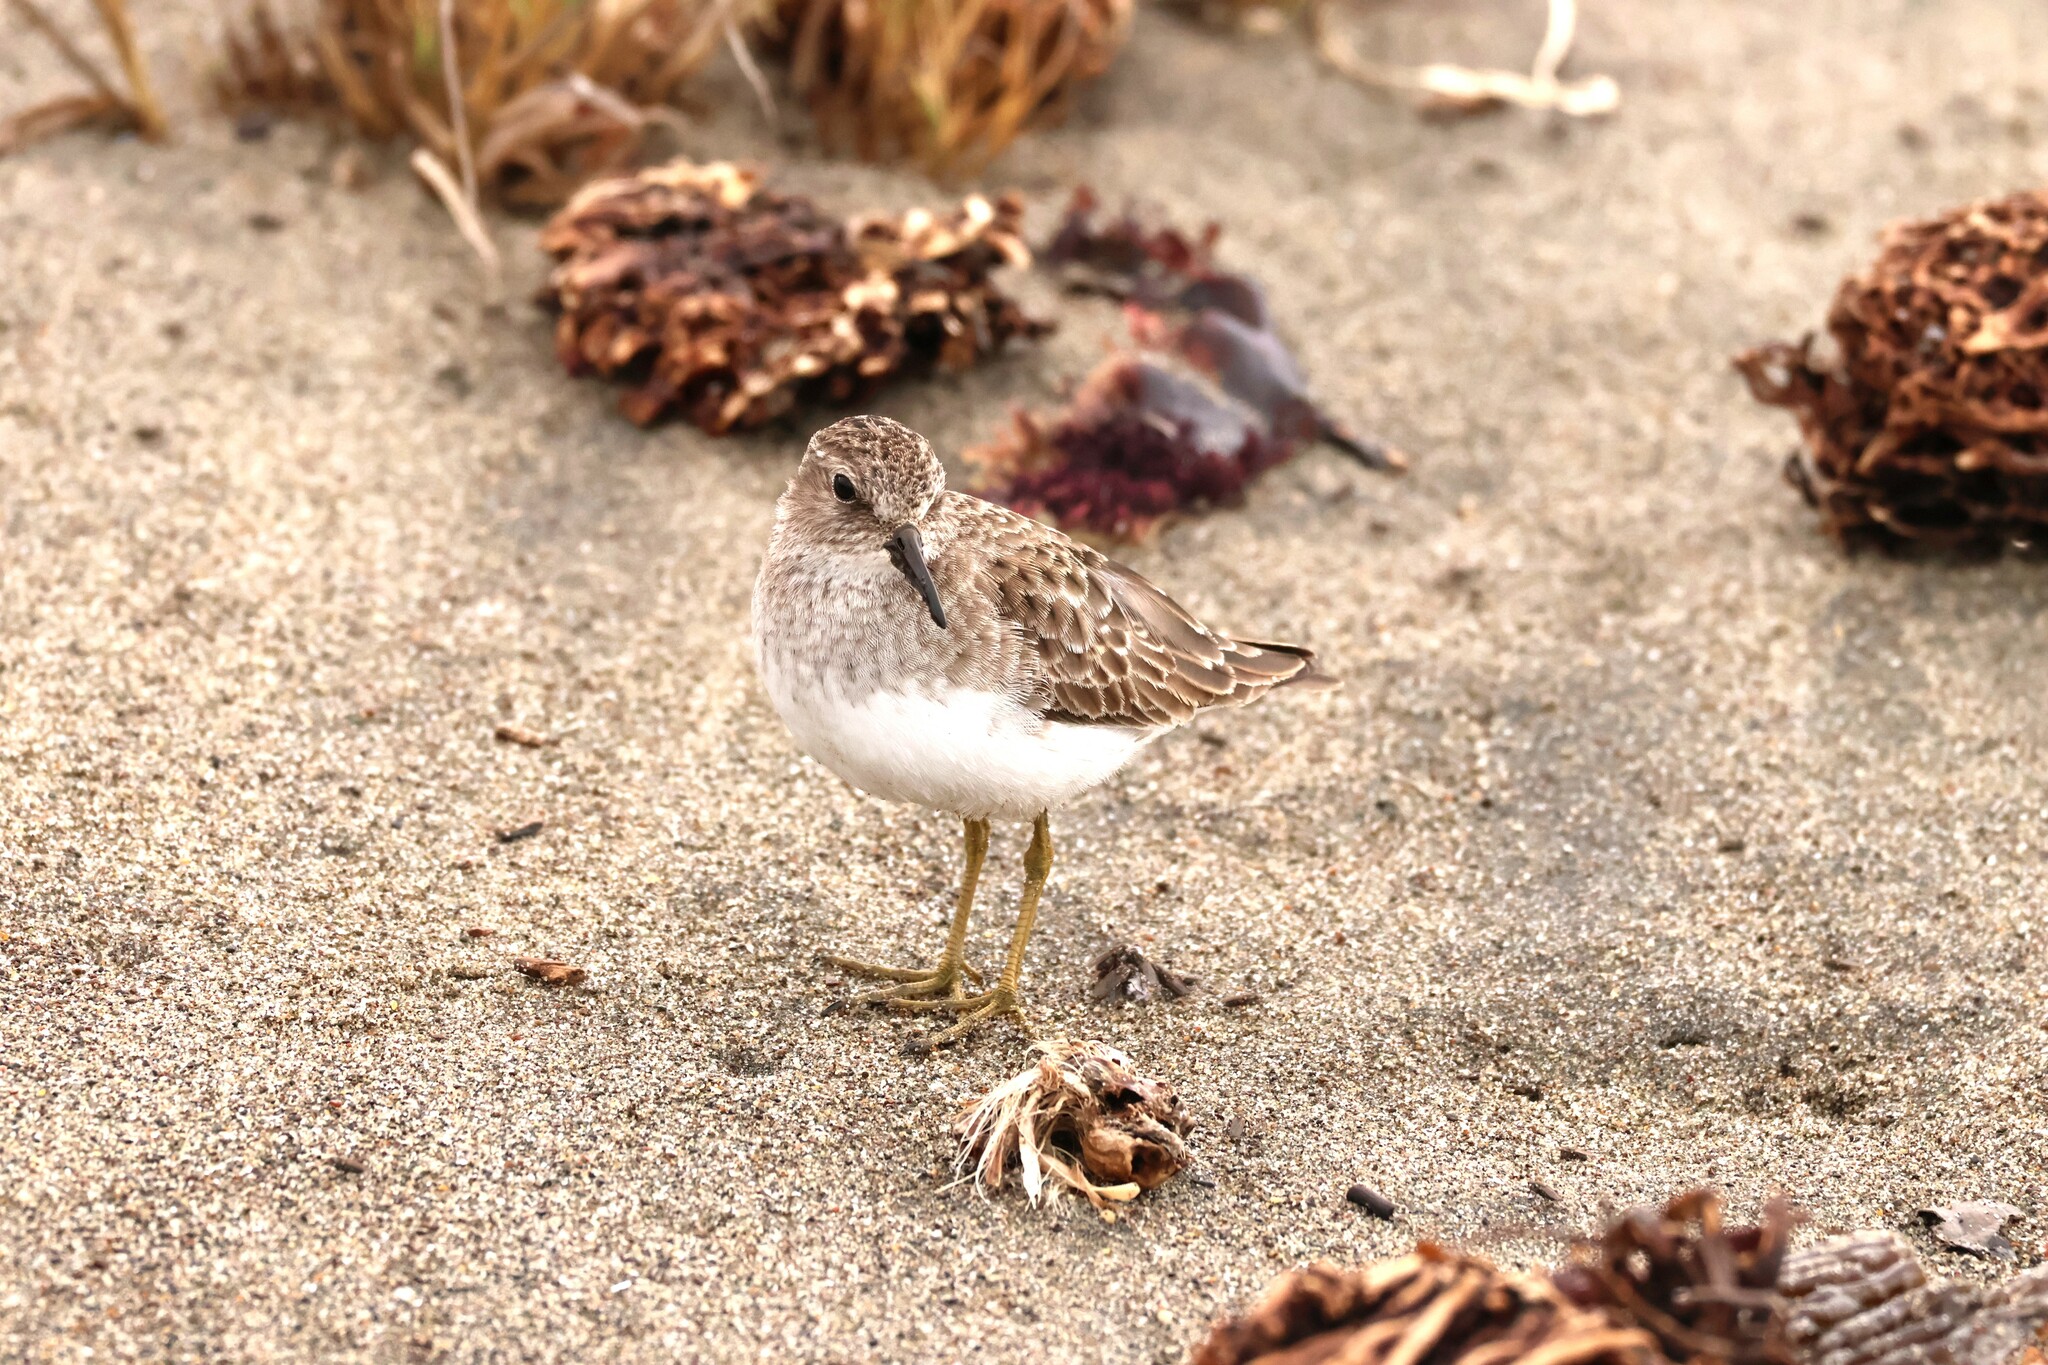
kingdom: Animalia
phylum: Chordata
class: Aves
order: Charadriiformes
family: Scolopacidae
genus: Calidris
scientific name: Calidris minutilla
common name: Least sandpiper
